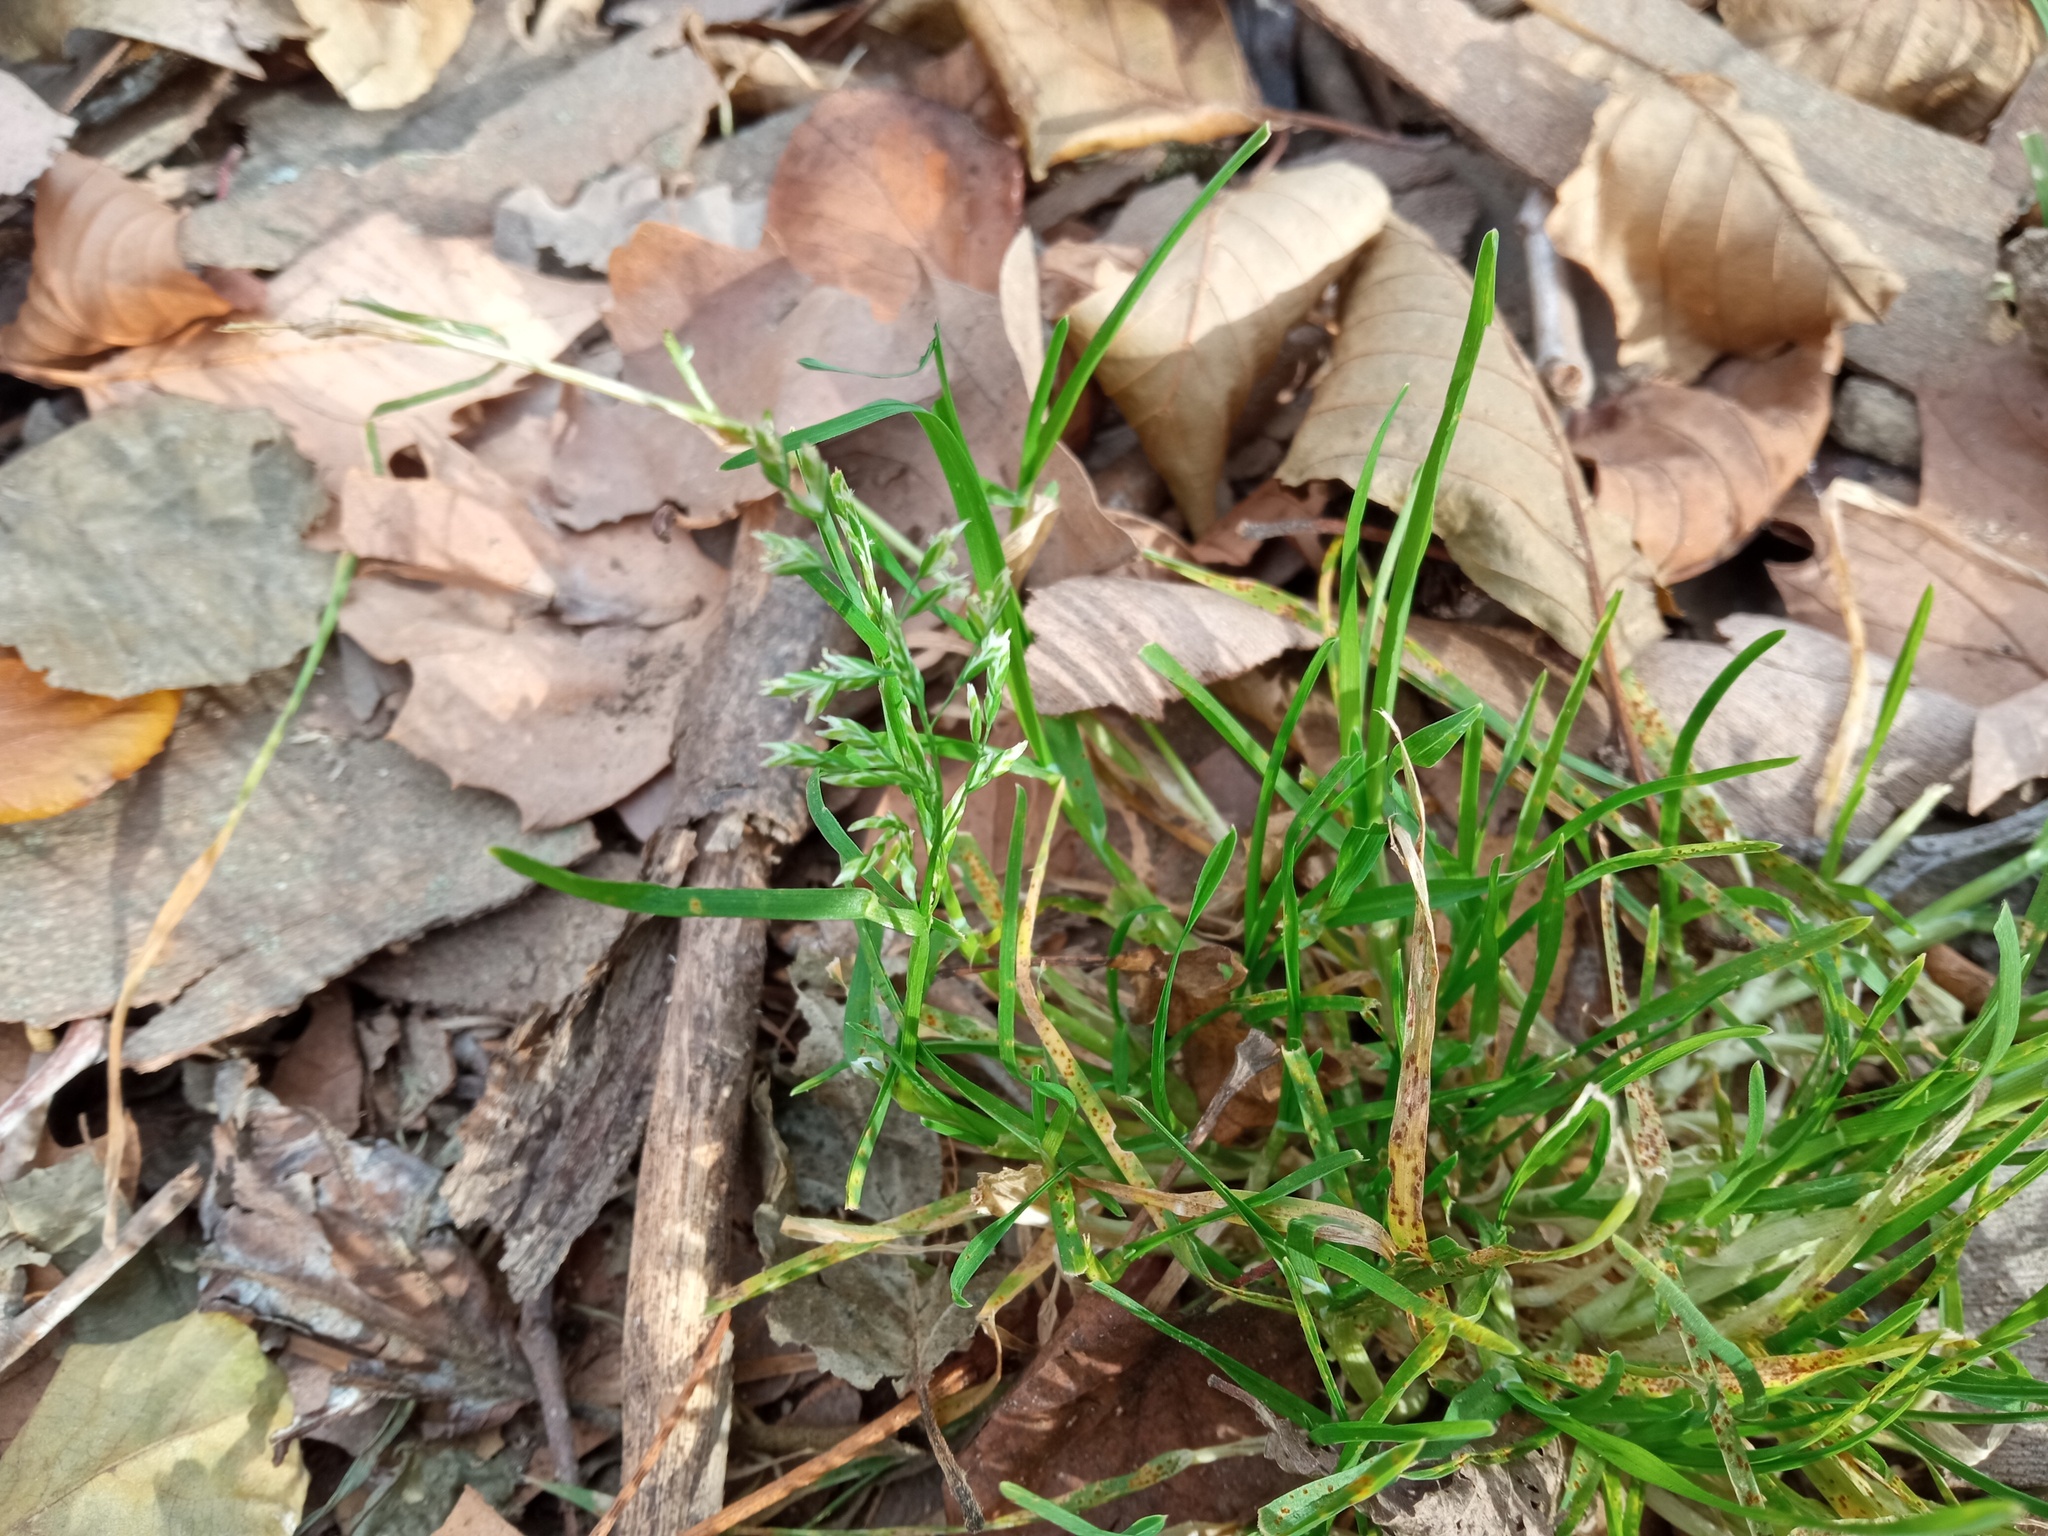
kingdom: Plantae
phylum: Tracheophyta
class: Liliopsida
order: Poales
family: Poaceae
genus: Poa
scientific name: Poa annua
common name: Annual bluegrass
